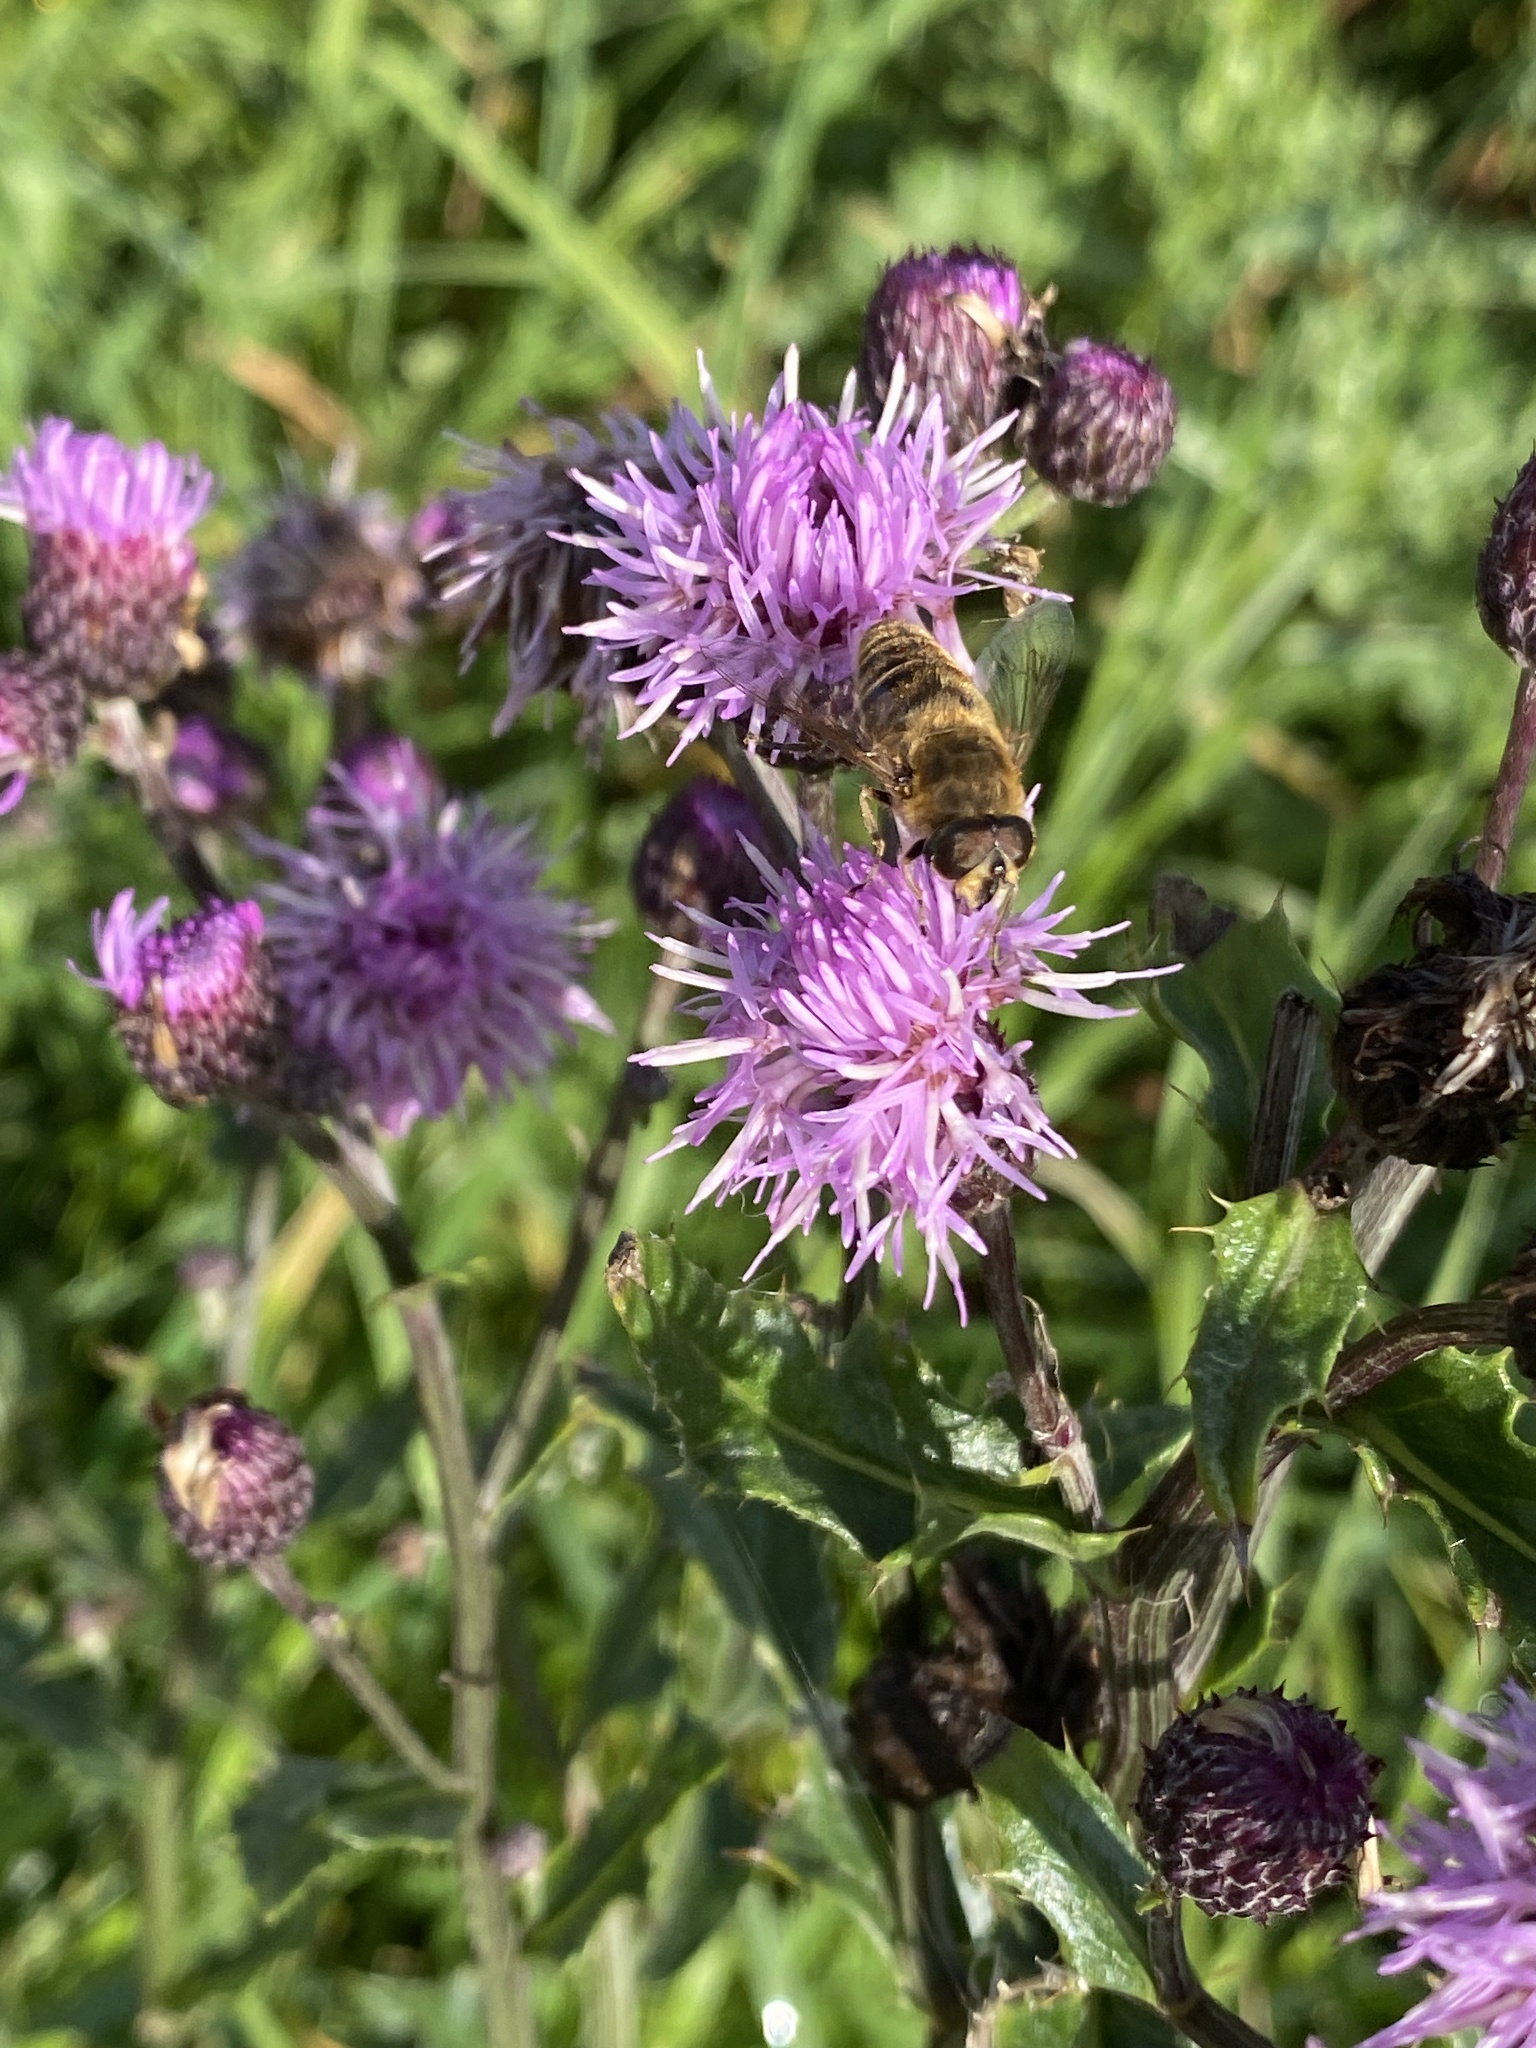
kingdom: Animalia
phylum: Arthropoda
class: Insecta
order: Diptera
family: Syrphidae
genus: Eristalis
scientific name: Eristalis tenax
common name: Drone fly
